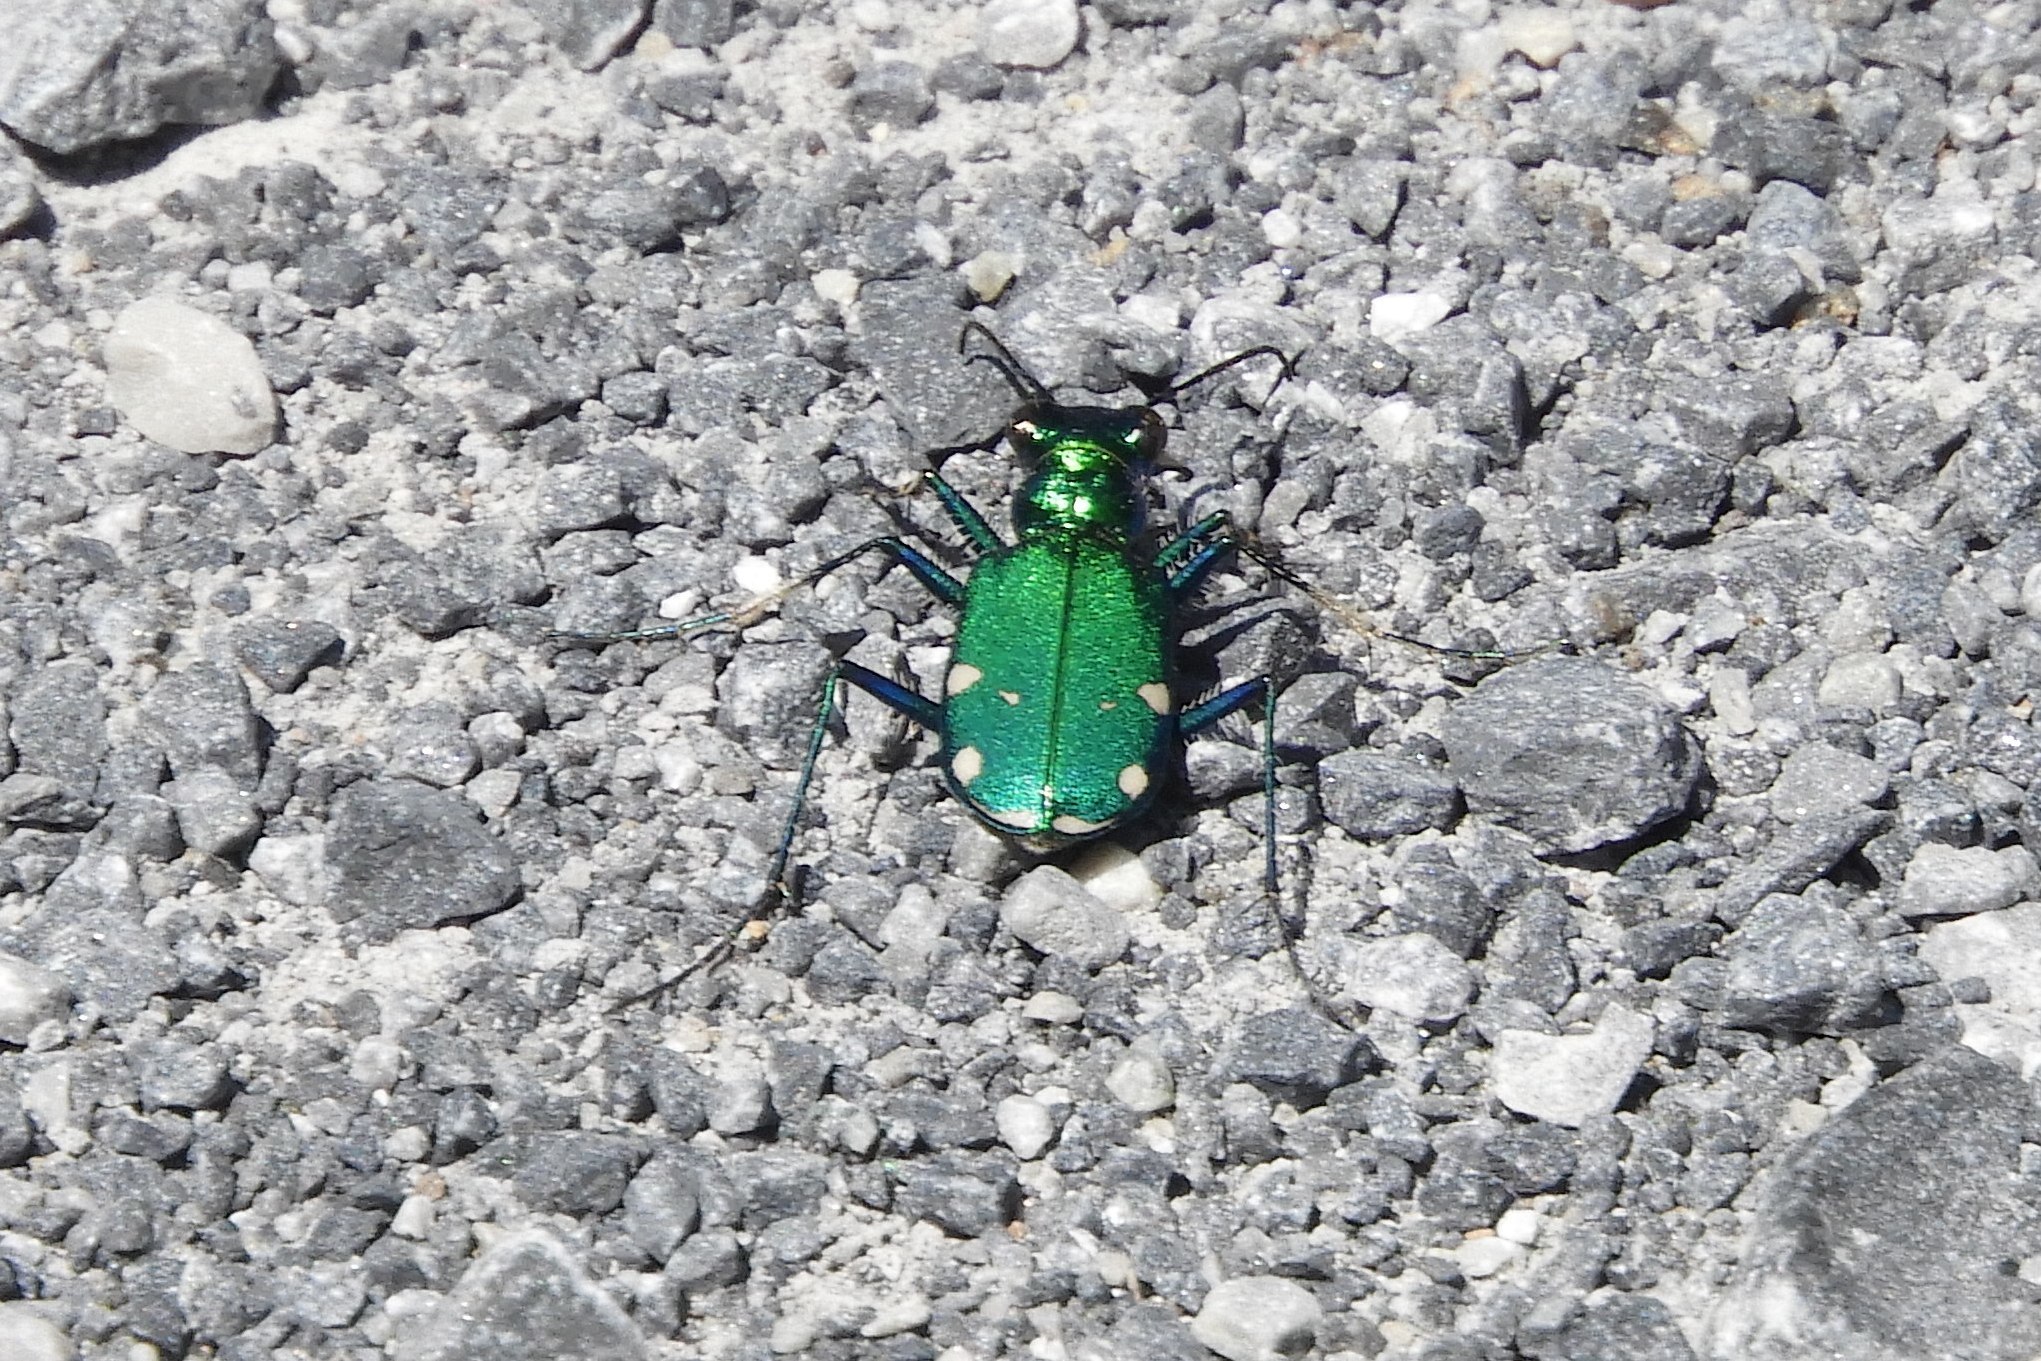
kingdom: Animalia
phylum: Arthropoda
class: Insecta
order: Coleoptera
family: Carabidae
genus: Cicindela
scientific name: Cicindela sexguttata
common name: Six-spotted tiger beetle
